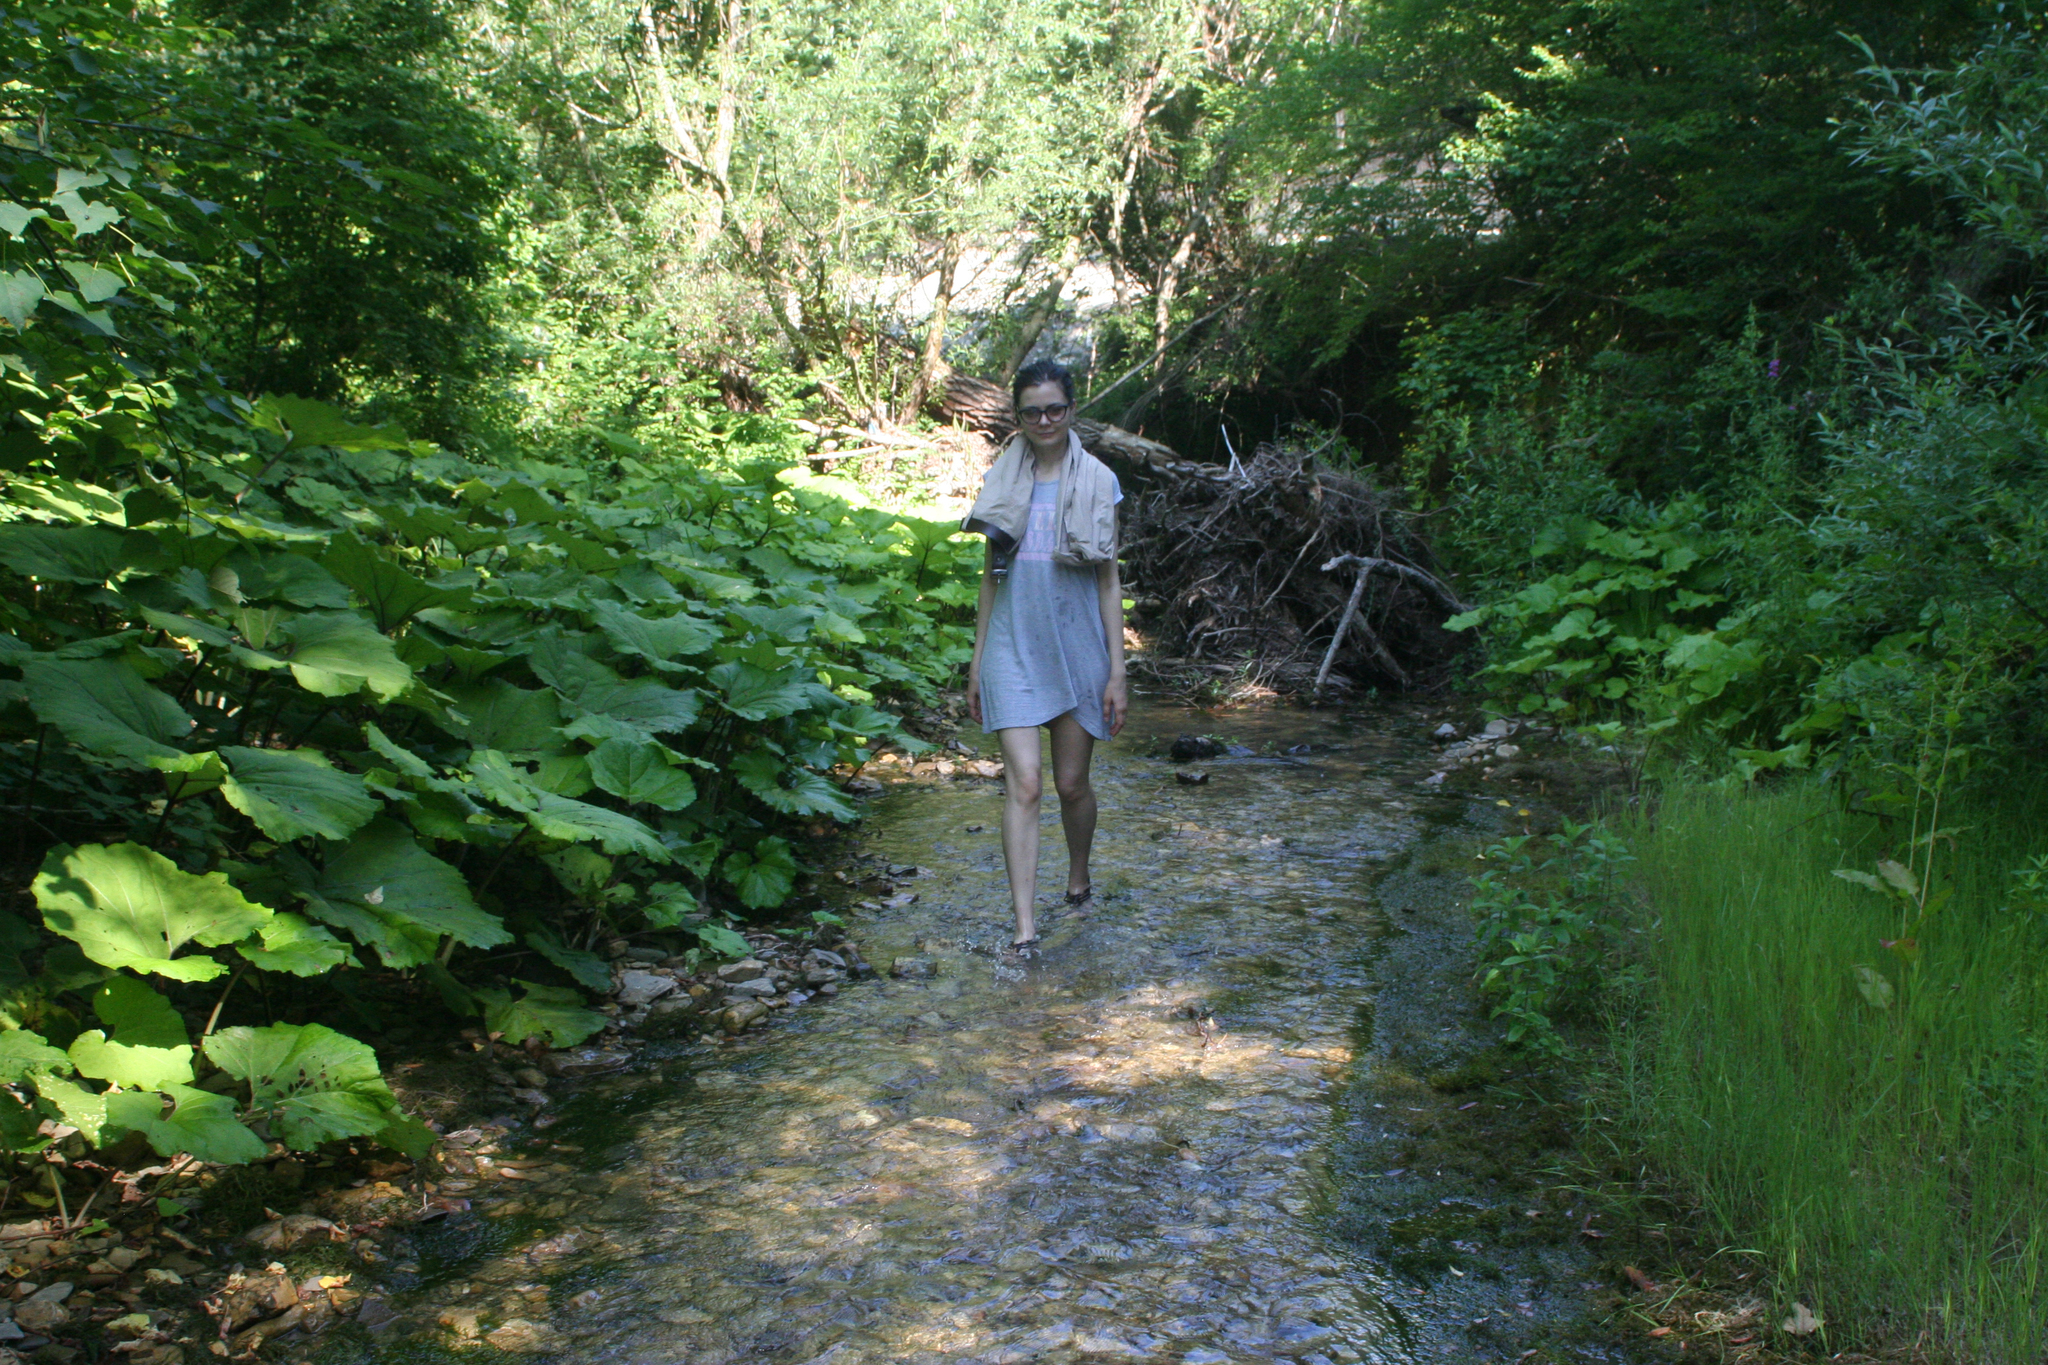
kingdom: Plantae
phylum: Tracheophyta
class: Magnoliopsida
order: Asterales
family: Asteraceae
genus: Petasites
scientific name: Petasites albus
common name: White butterbur
